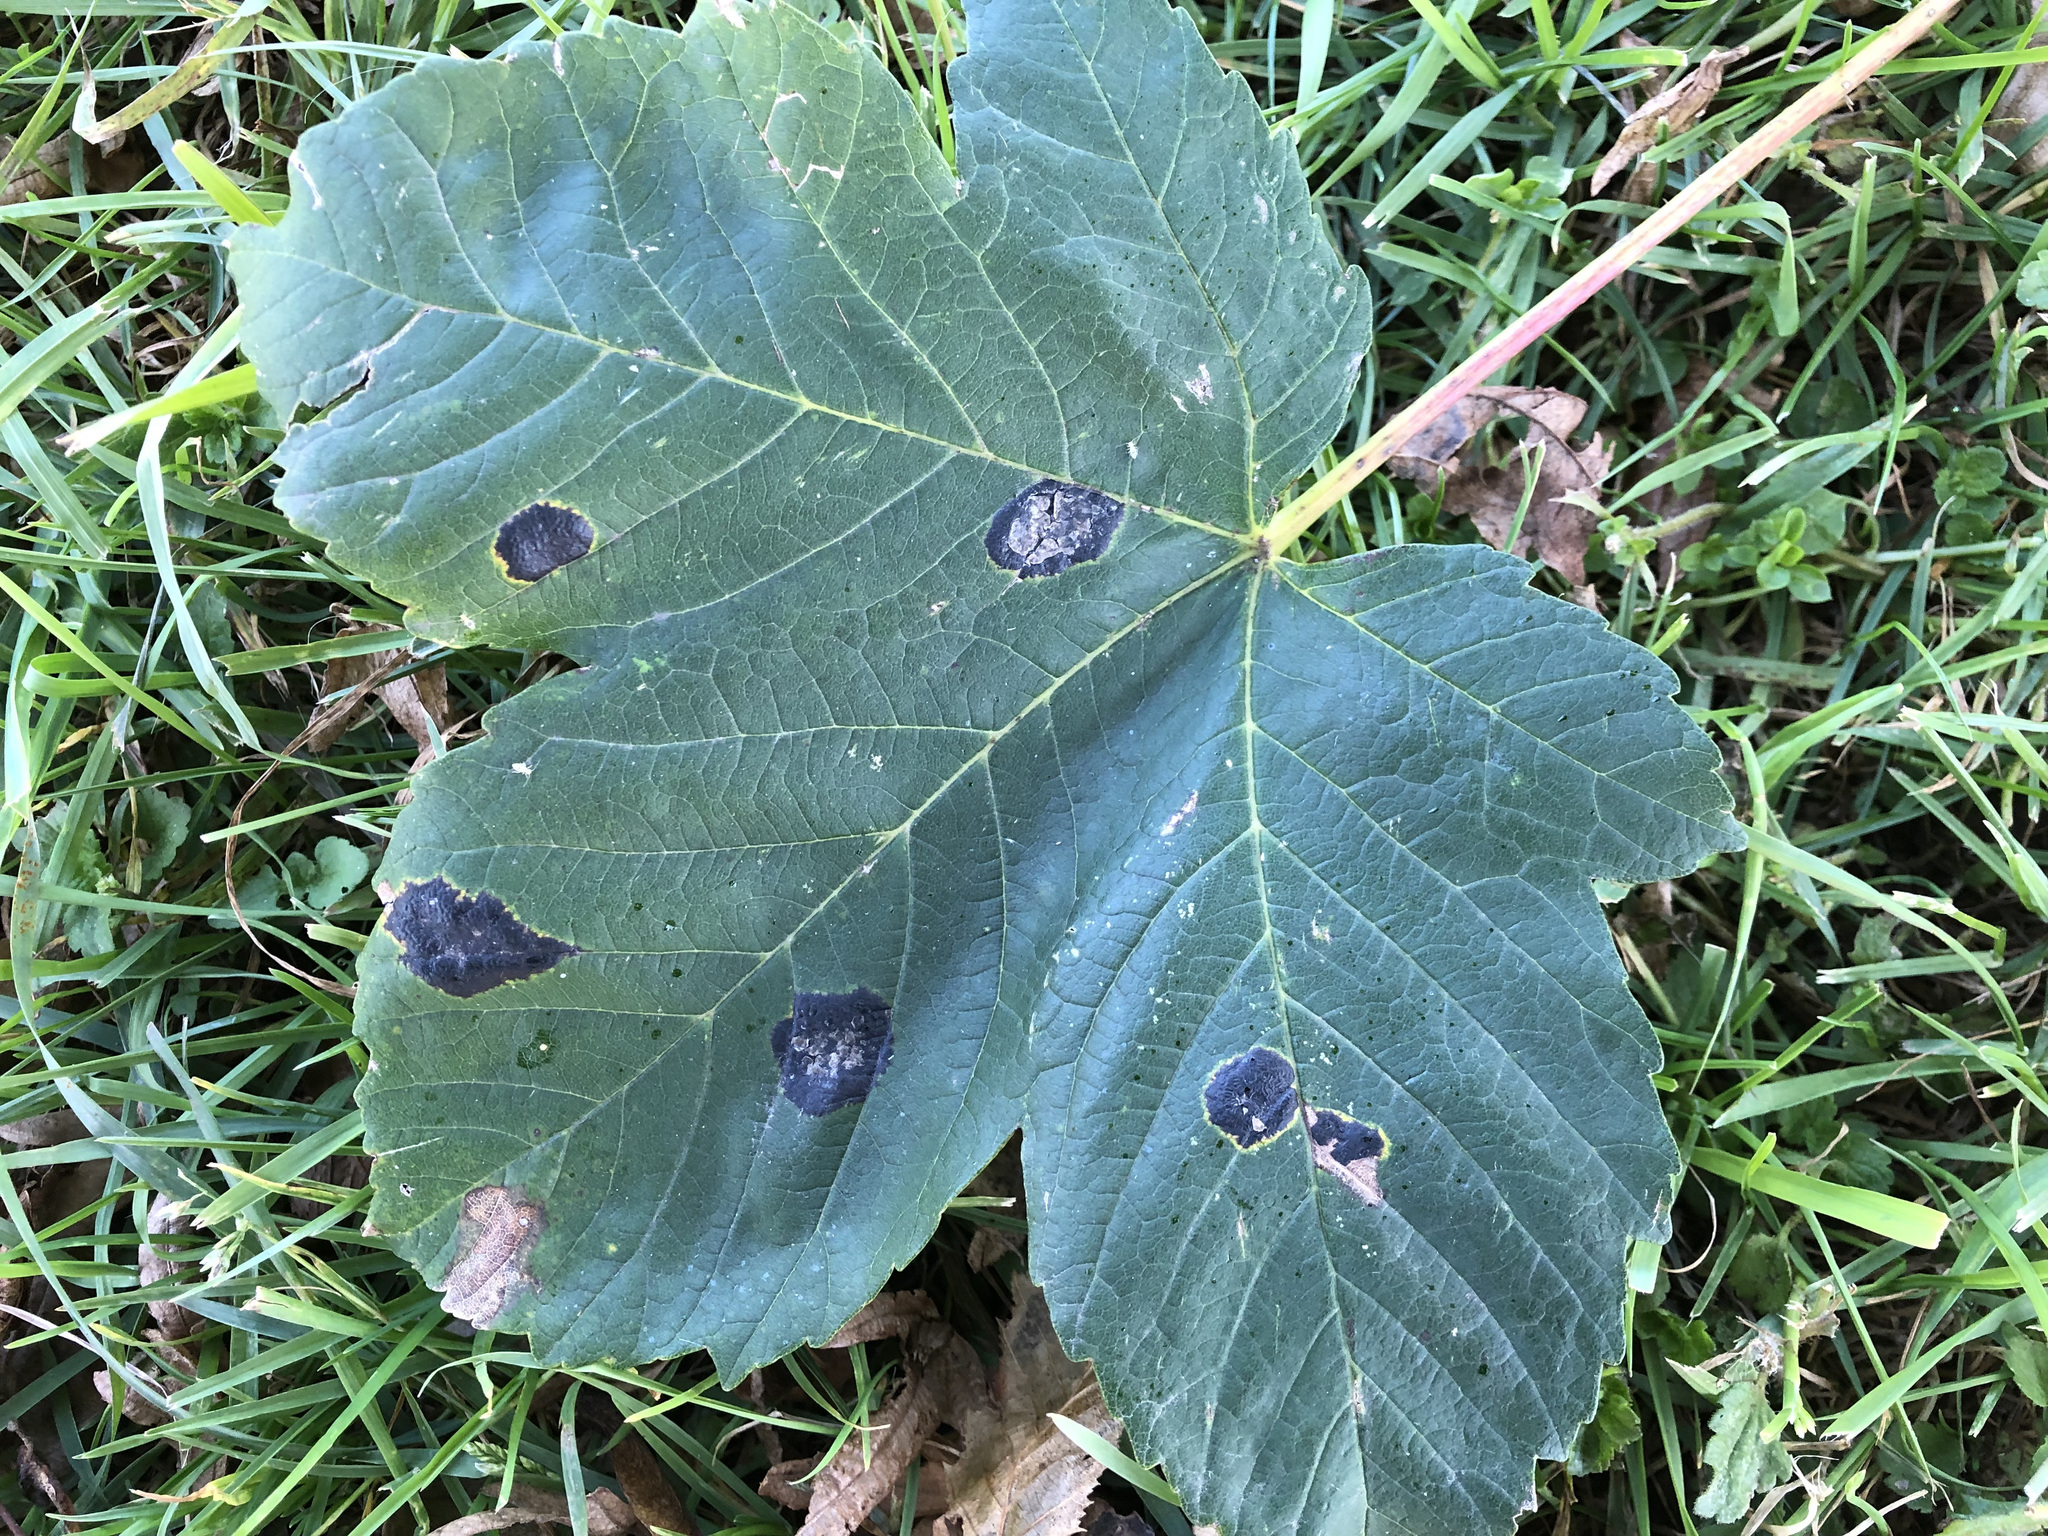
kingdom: Plantae
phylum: Tracheophyta
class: Magnoliopsida
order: Sapindales
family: Sapindaceae
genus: Acer
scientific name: Acer pseudoplatanus
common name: Sycamore
